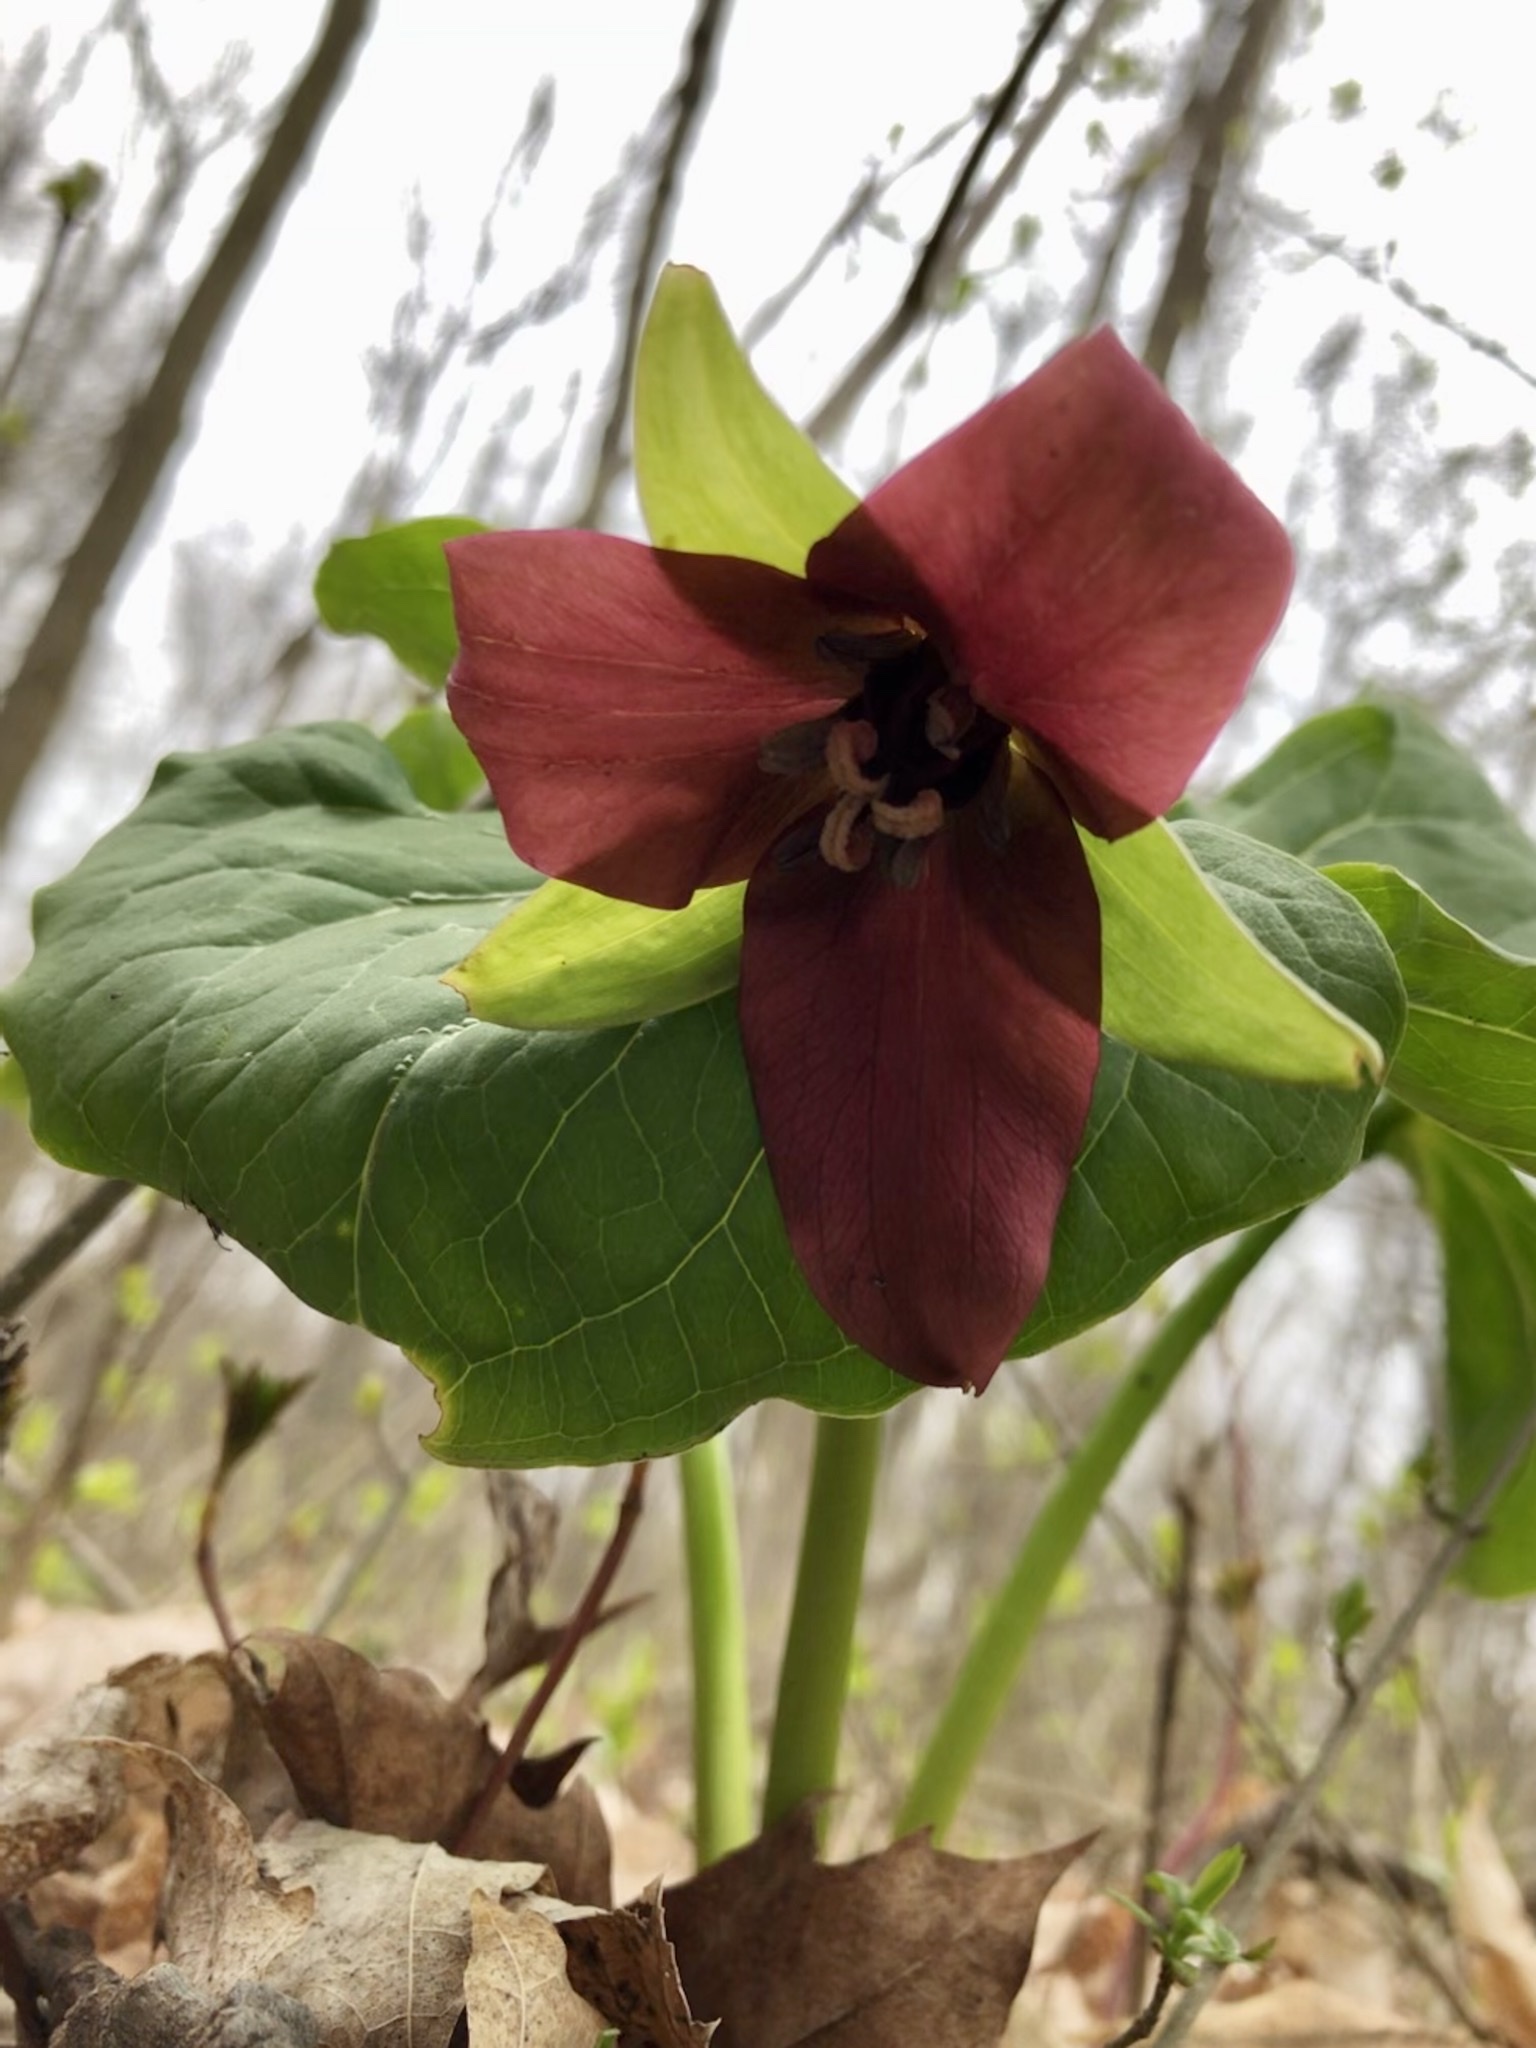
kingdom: Plantae
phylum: Tracheophyta
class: Liliopsida
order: Liliales
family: Melanthiaceae
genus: Trillium
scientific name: Trillium erectum
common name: Purple trillium
